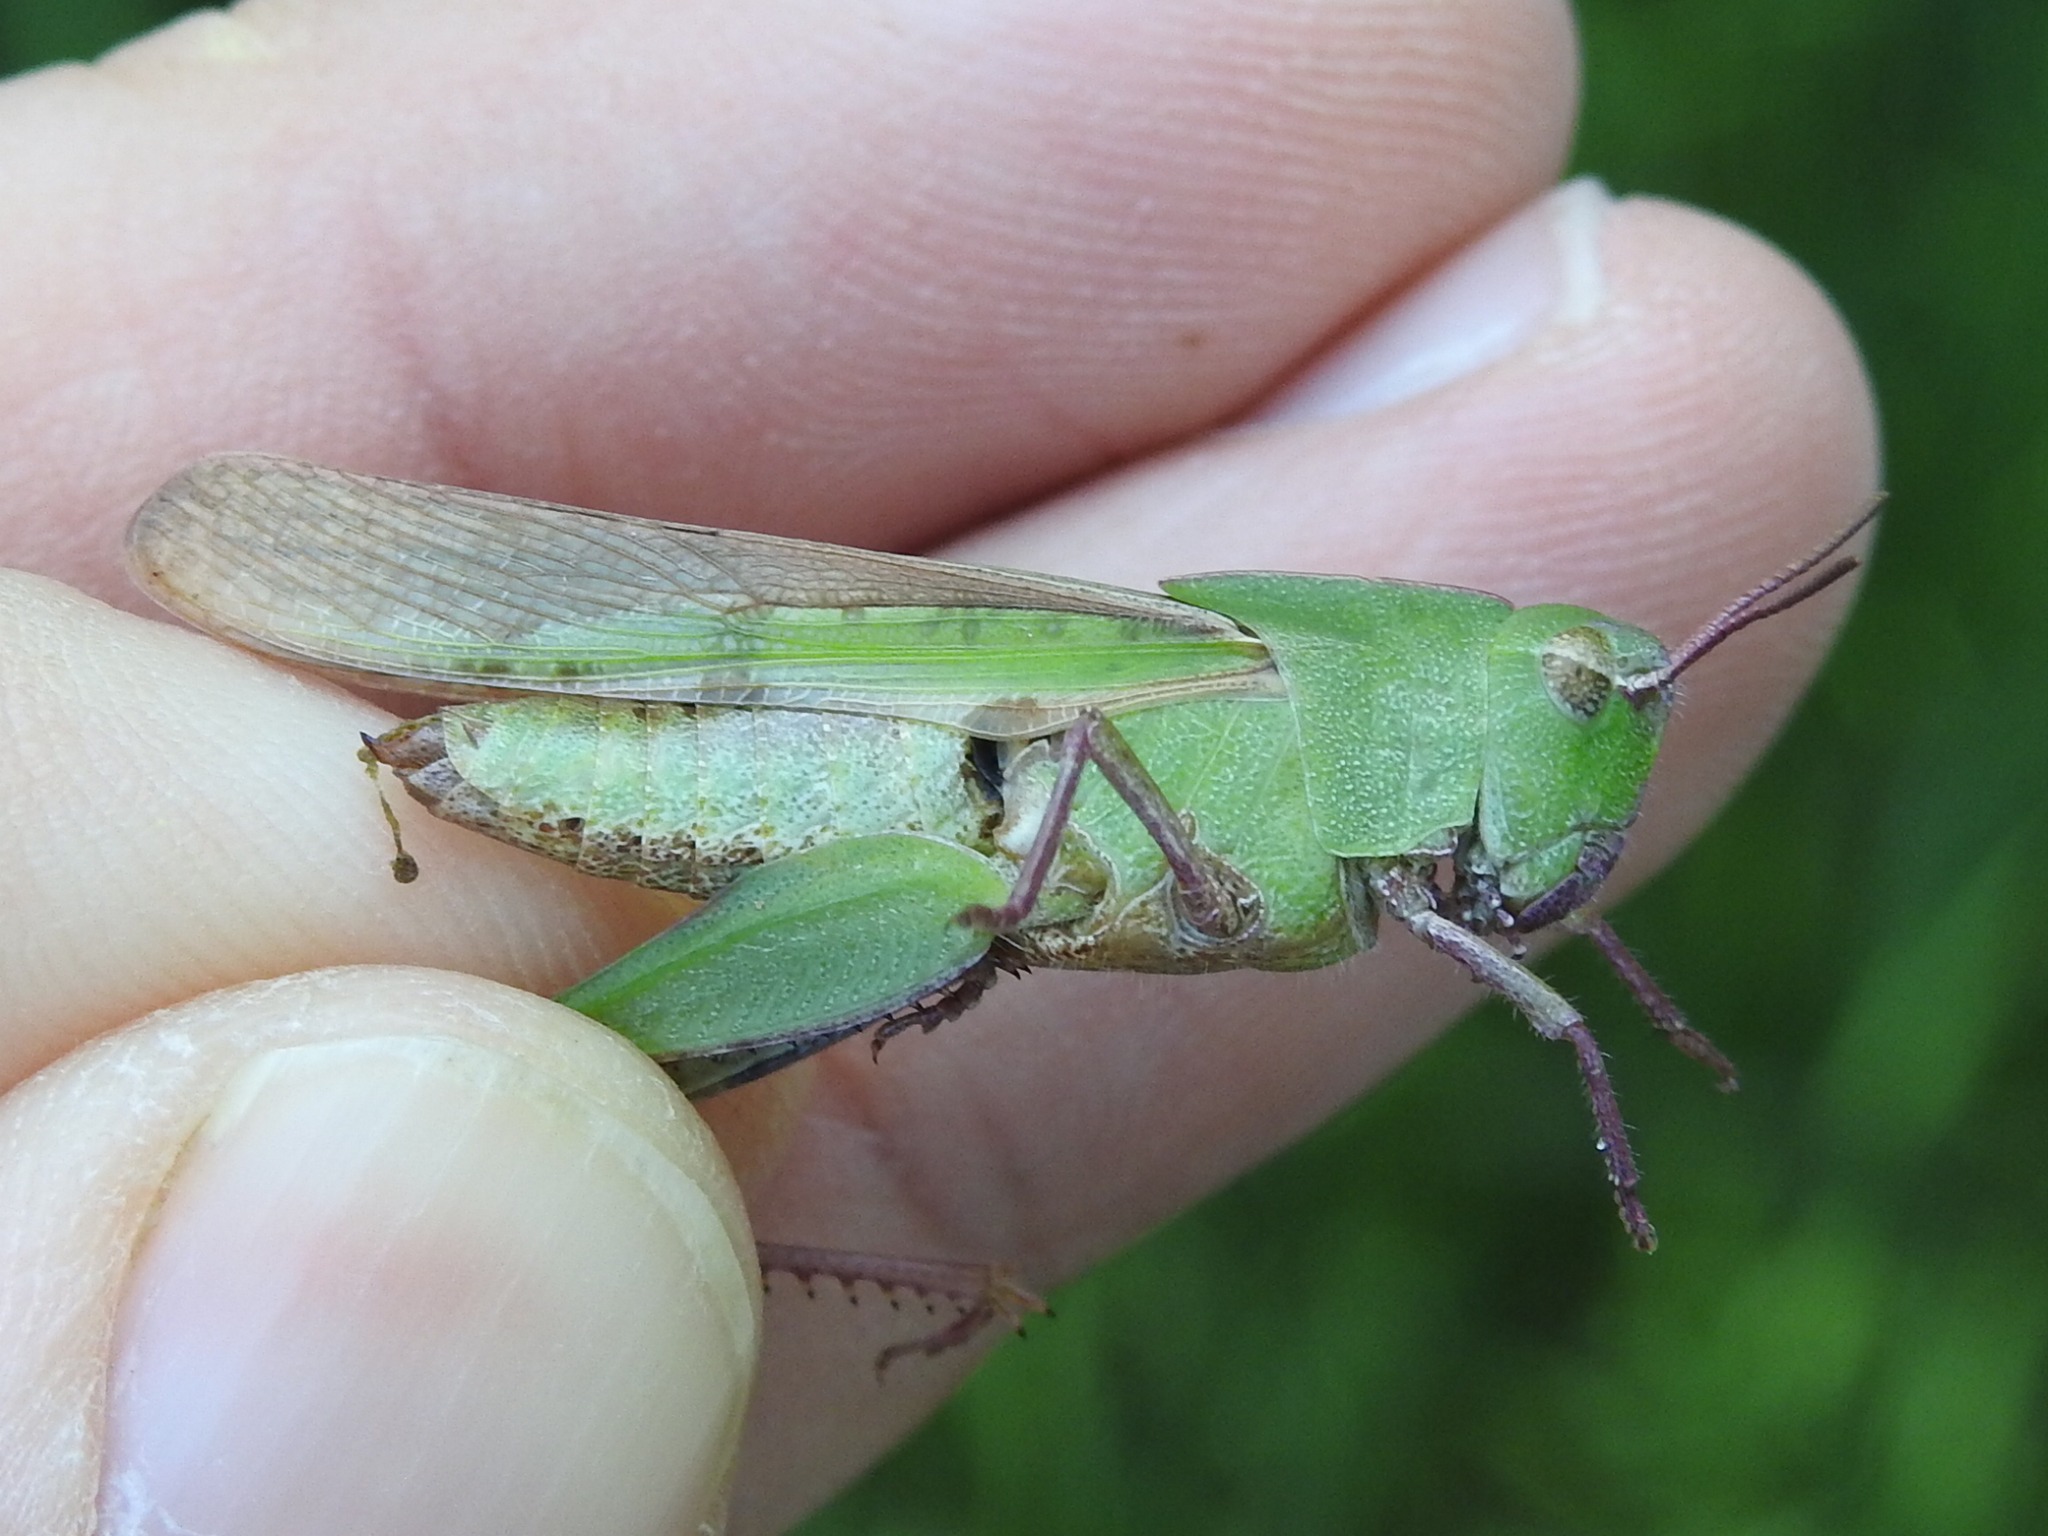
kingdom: Animalia
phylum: Arthropoda
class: Insecta
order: Orthoptera
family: Acrididae
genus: Chortophaga
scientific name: Chortophaga viridifasciata
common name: Green-striped grasshopper
